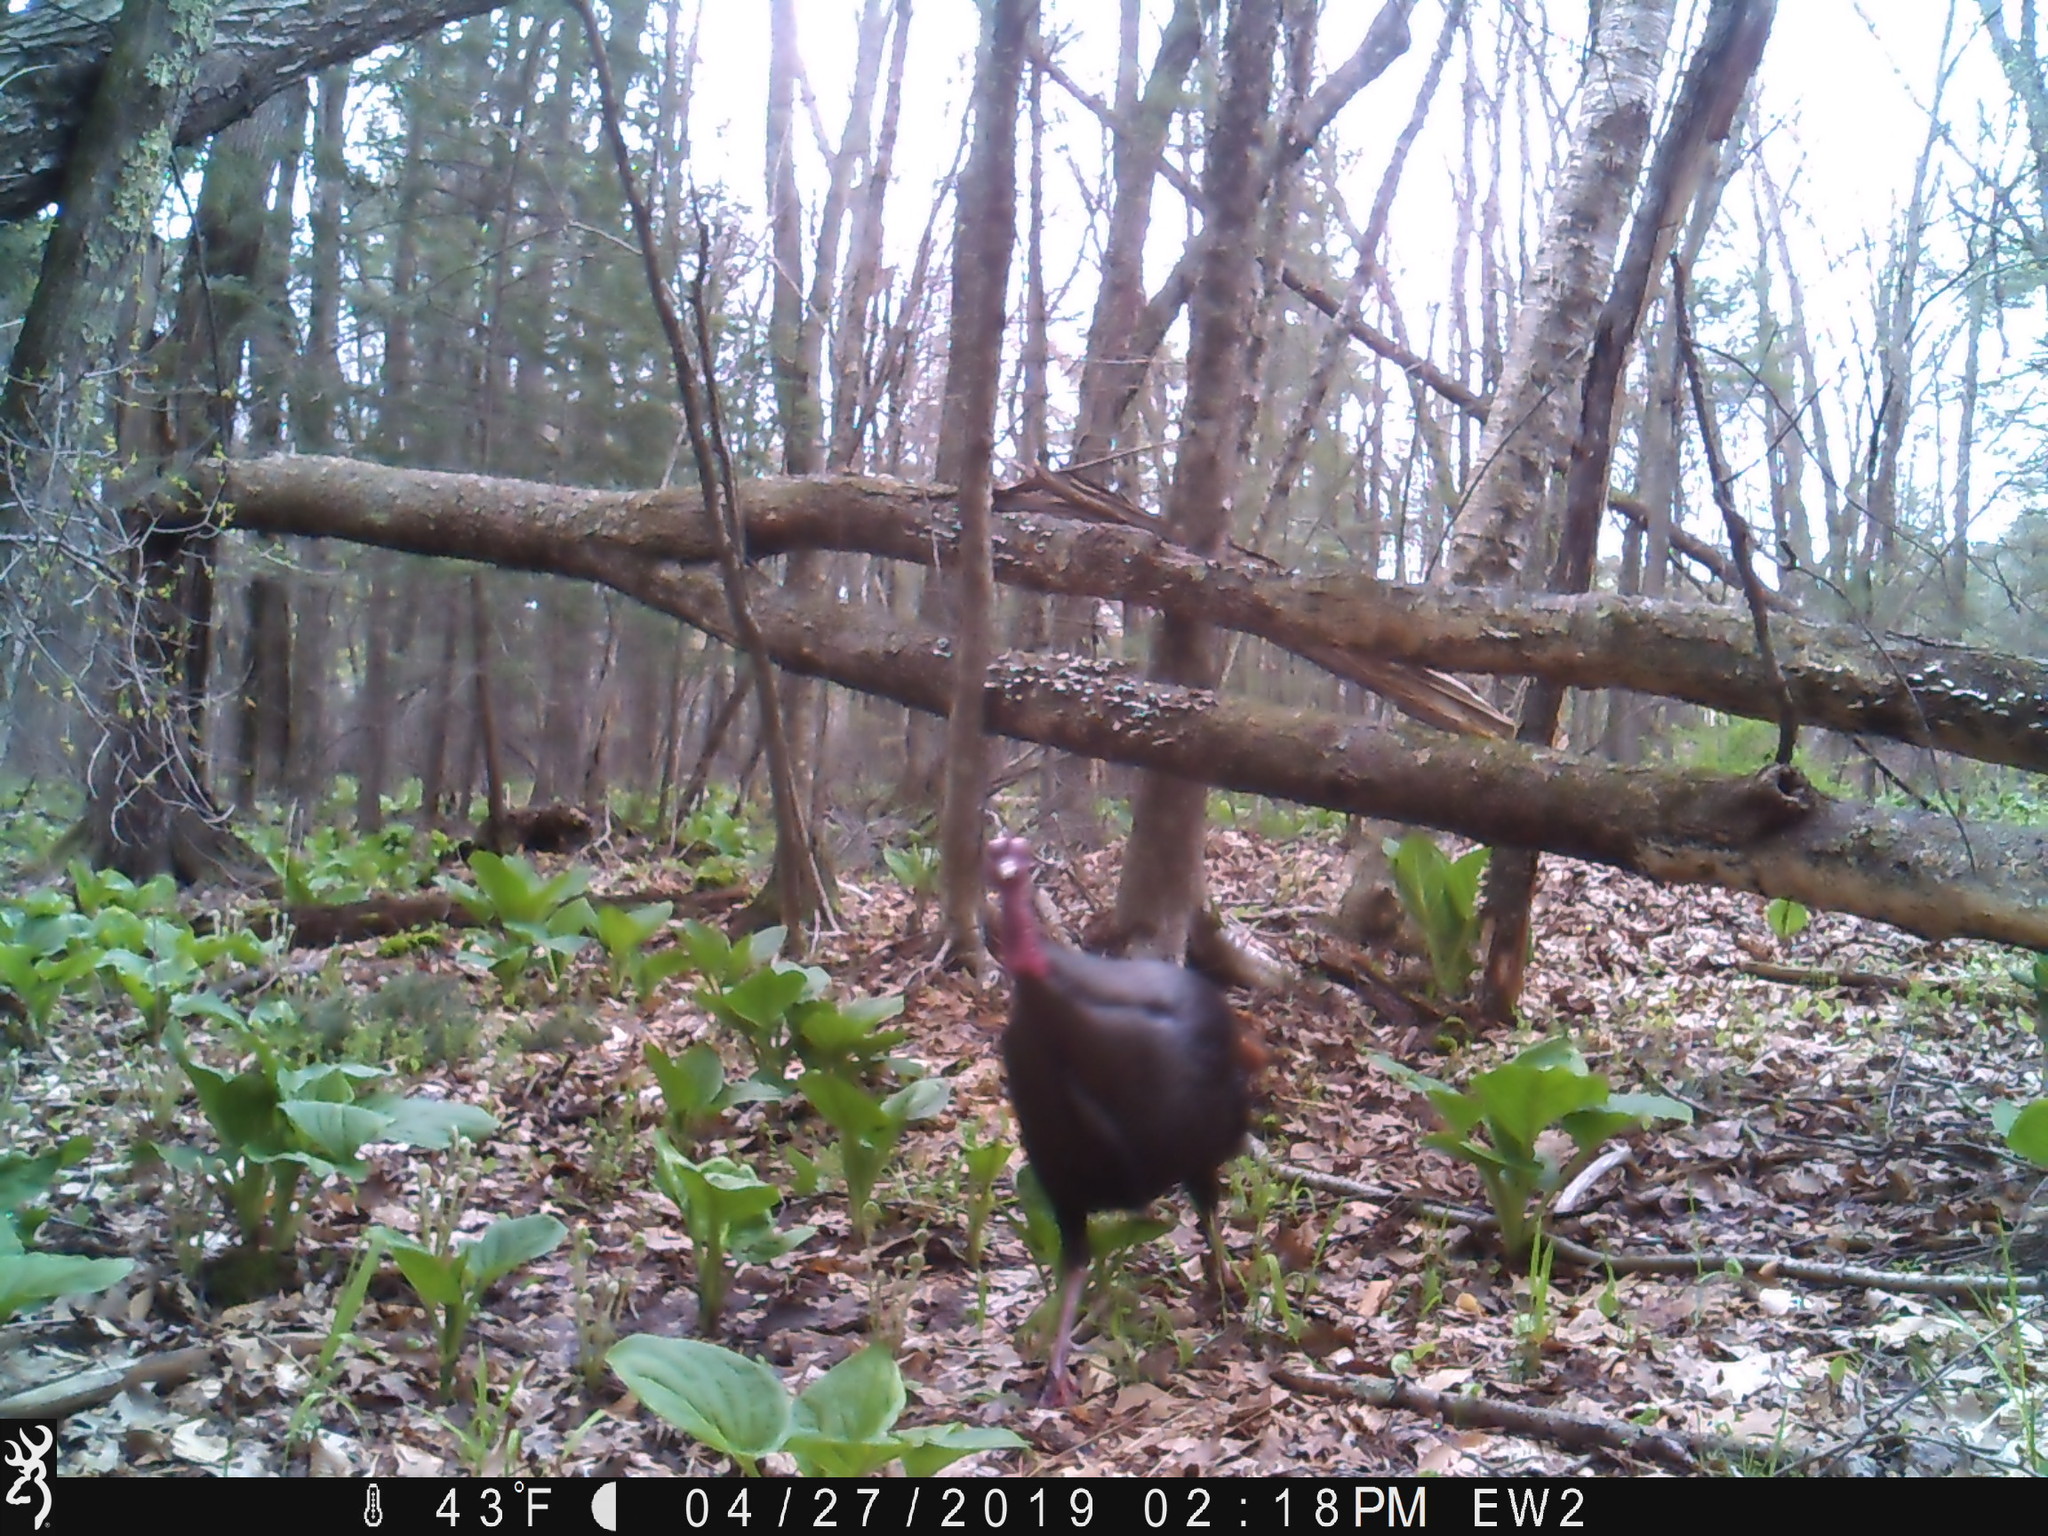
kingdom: Animalia
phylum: Chordata
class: Aves
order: Galliformes
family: Phasianidae
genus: Meleagris
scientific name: Meleagris gallopavo
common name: Wild turkey
